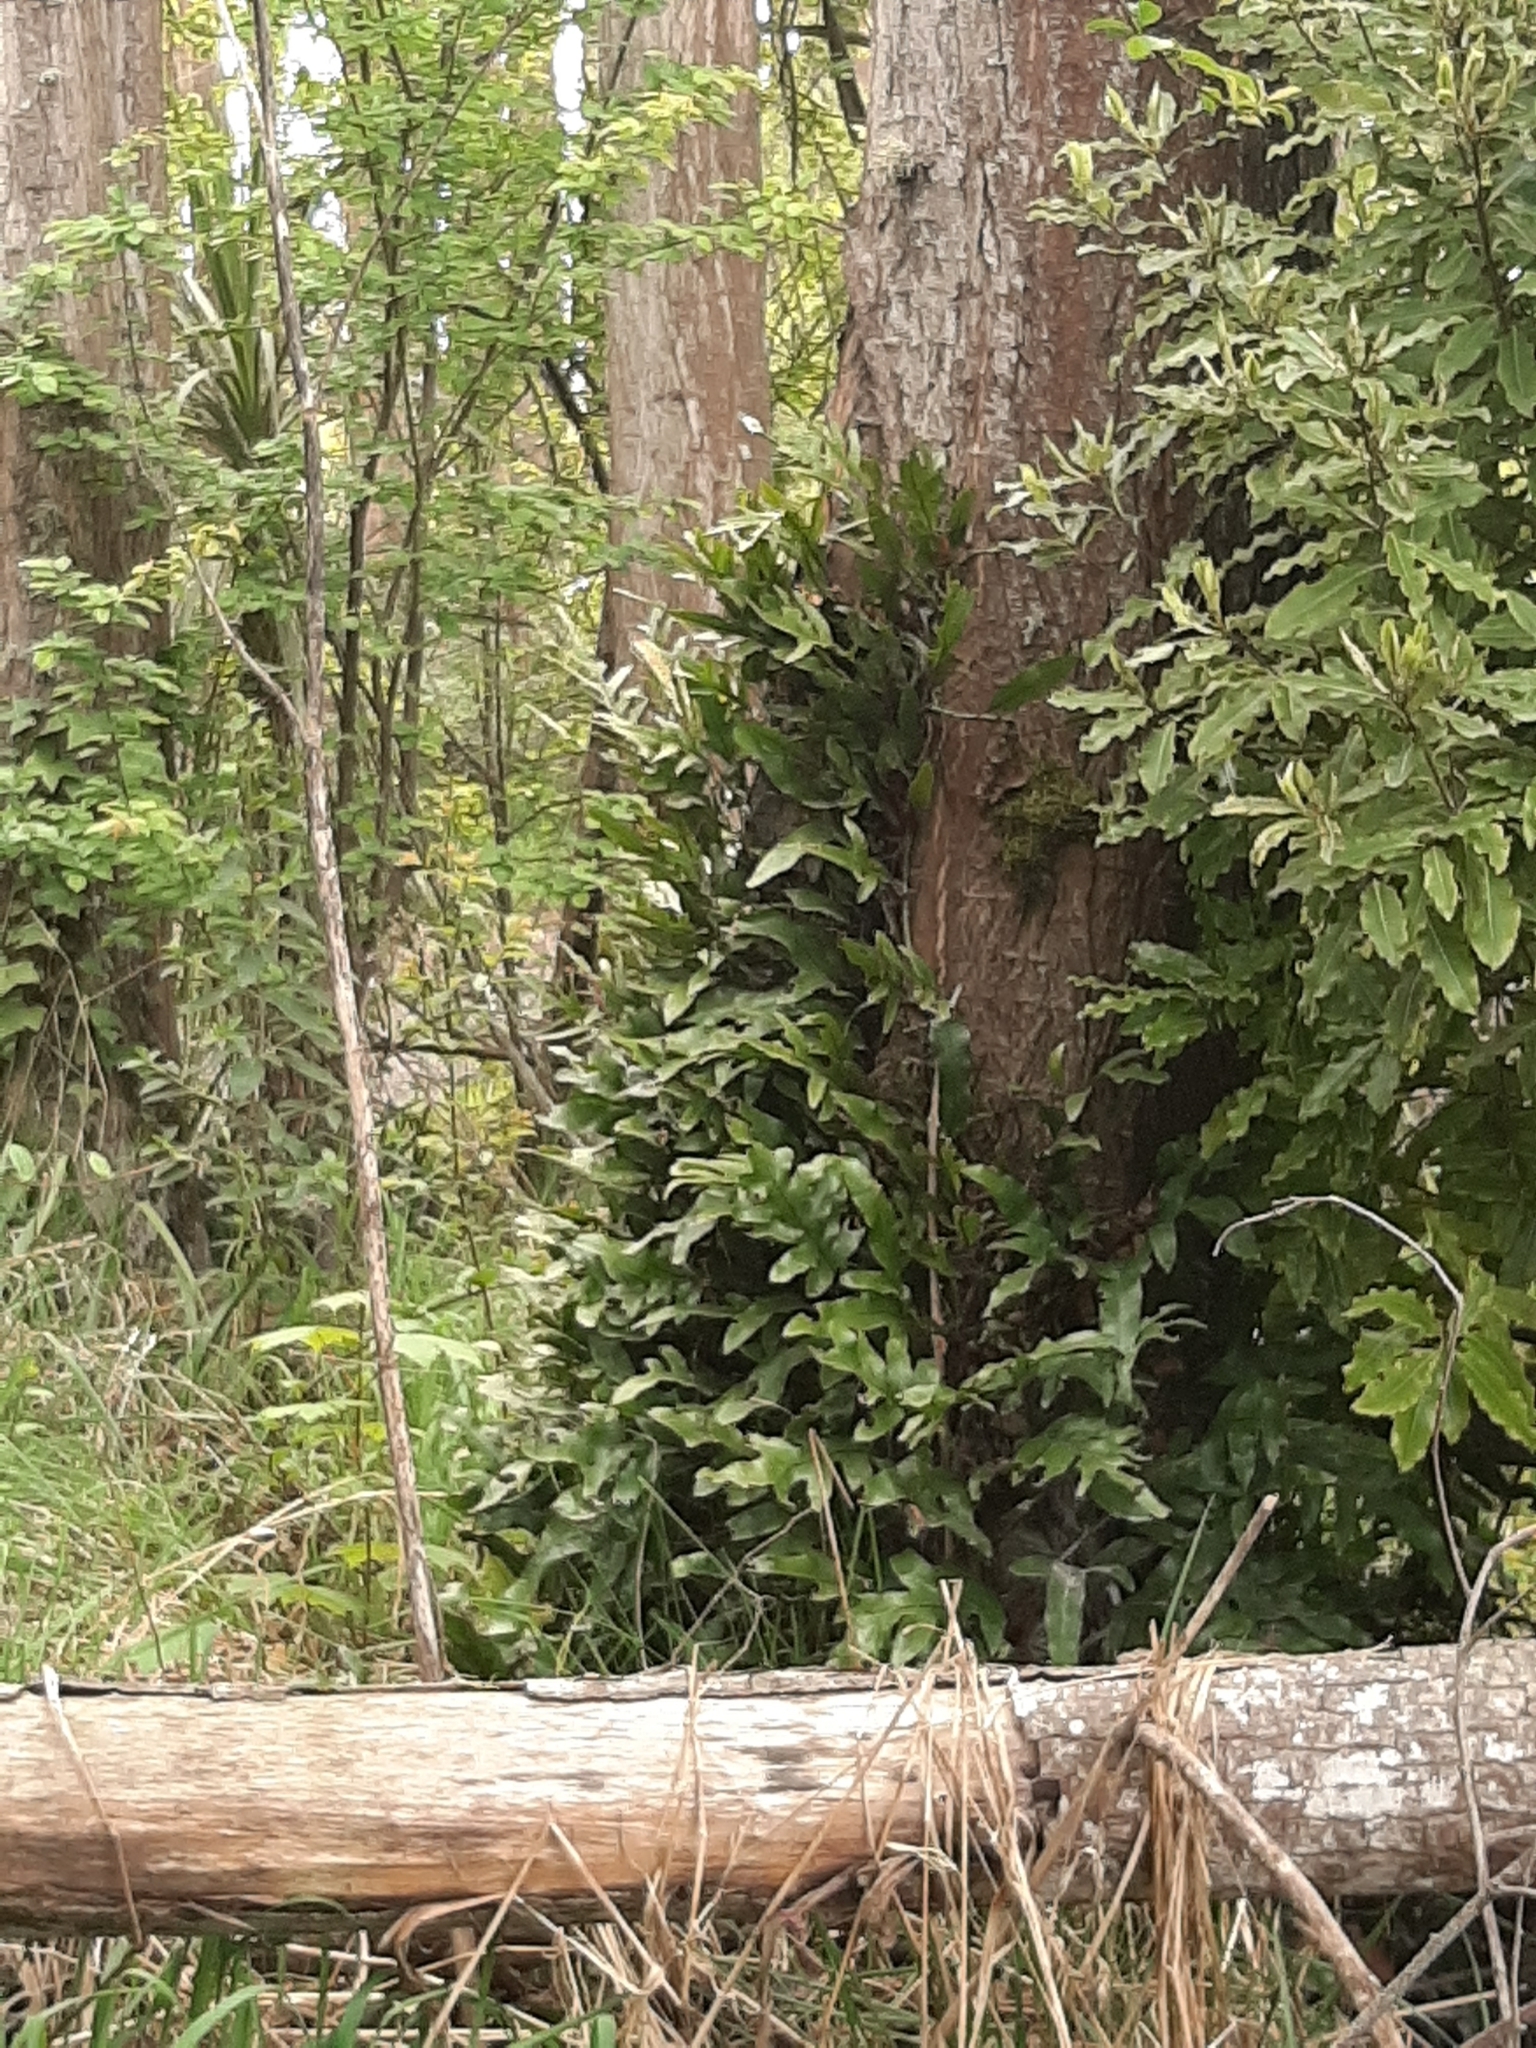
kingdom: Plantae
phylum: Tracheophyta
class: Polypodiopsida
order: Polypodiales
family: Polypodiaceae
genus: Lecanopteris
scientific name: Lecanopteris pustulata
